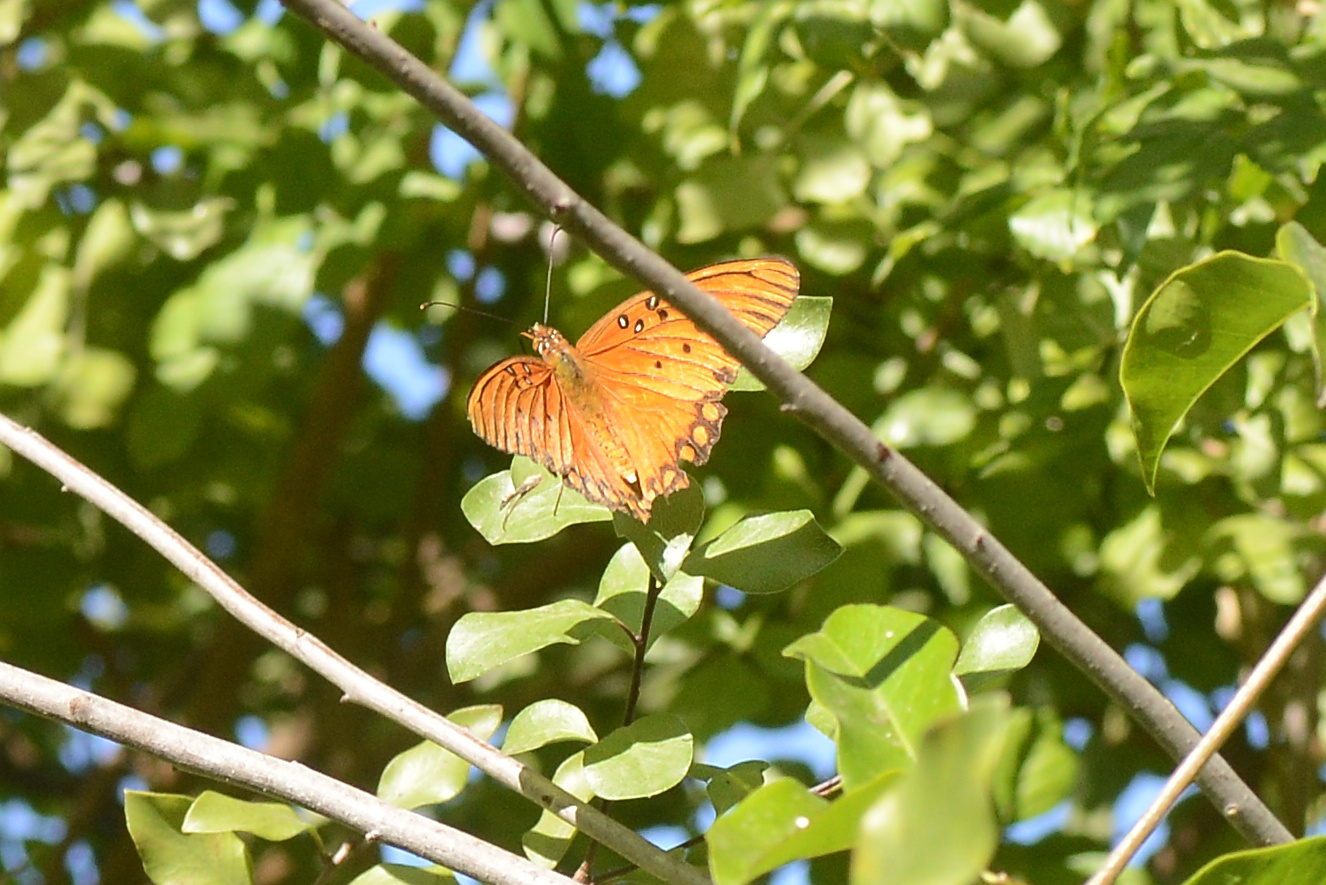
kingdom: Animalia
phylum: Arthropoda
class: Insecta
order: Lepidoptera
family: Nymphalidae
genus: Dione
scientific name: Dione vanillae
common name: Gulf fritillary
